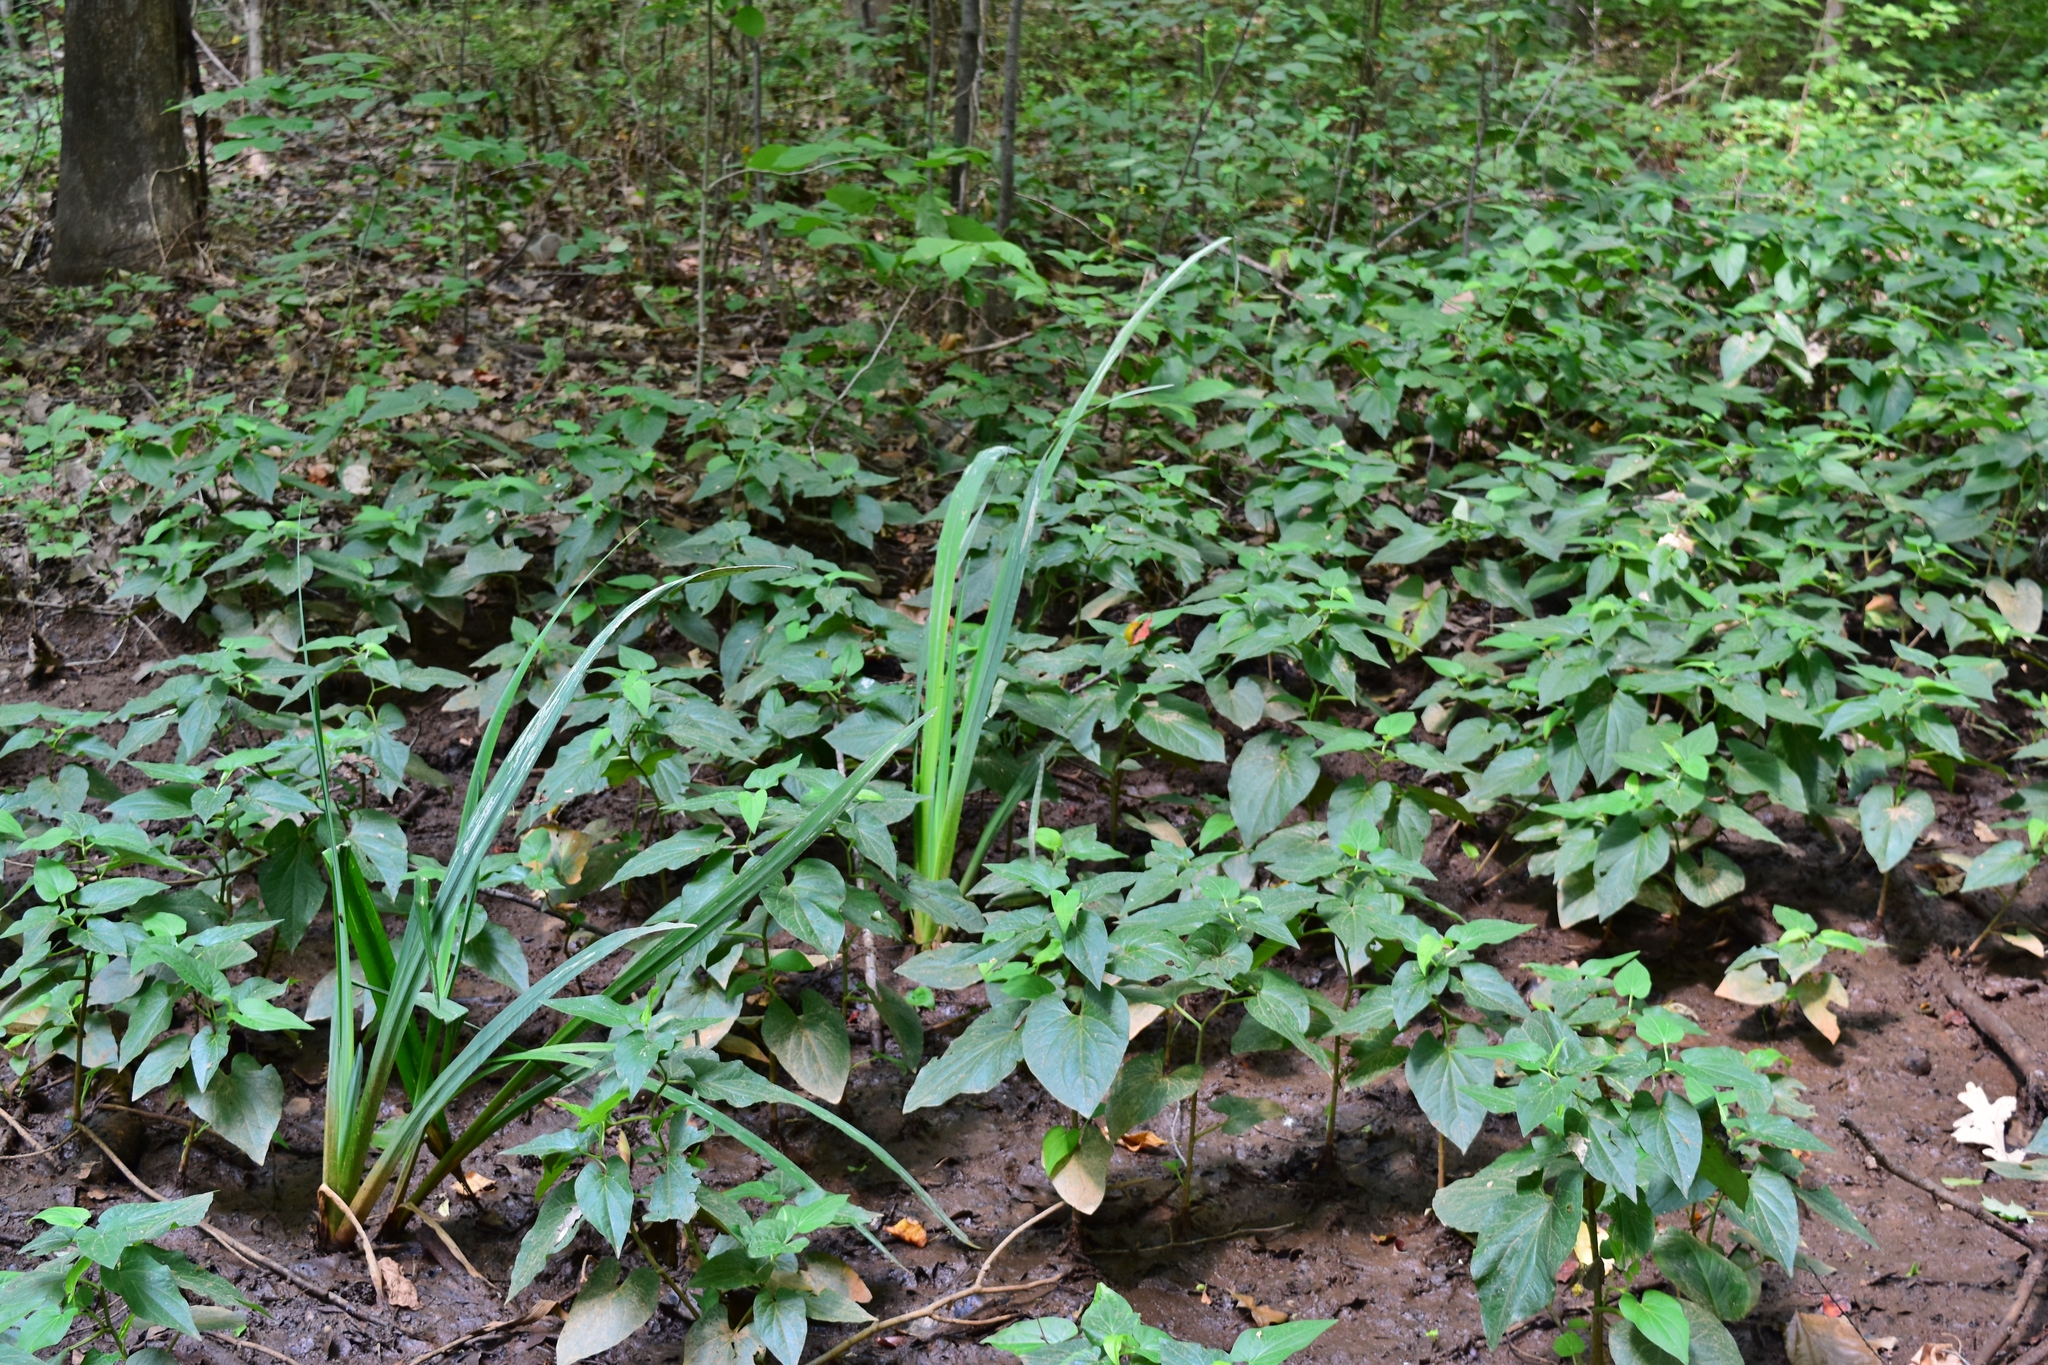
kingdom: Plantae
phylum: Tracheophyta
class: Magnoliopsida
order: Piperales
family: Saururaceae
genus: Saururus
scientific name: Saururus cernuus
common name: Lizard's-tail
